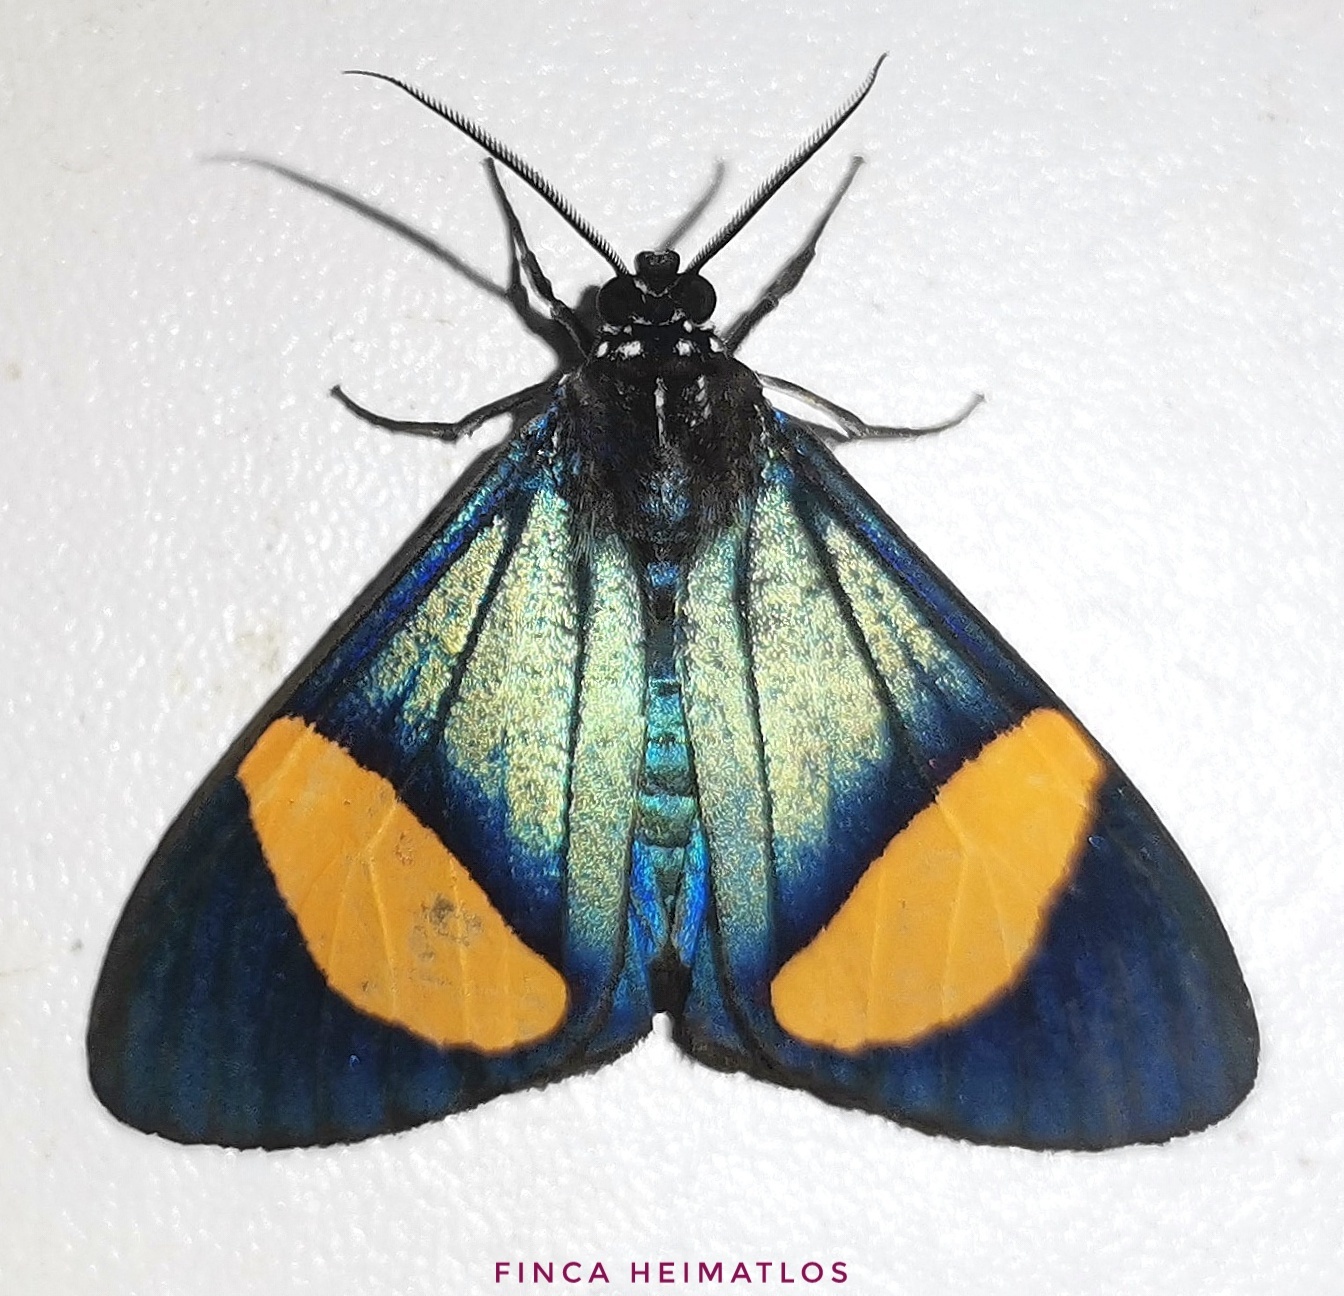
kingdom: Animalia
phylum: Arthropoda
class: Insecta
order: Lepidoptera
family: Erebidae
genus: Crocomela
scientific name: Crocomela colorata
